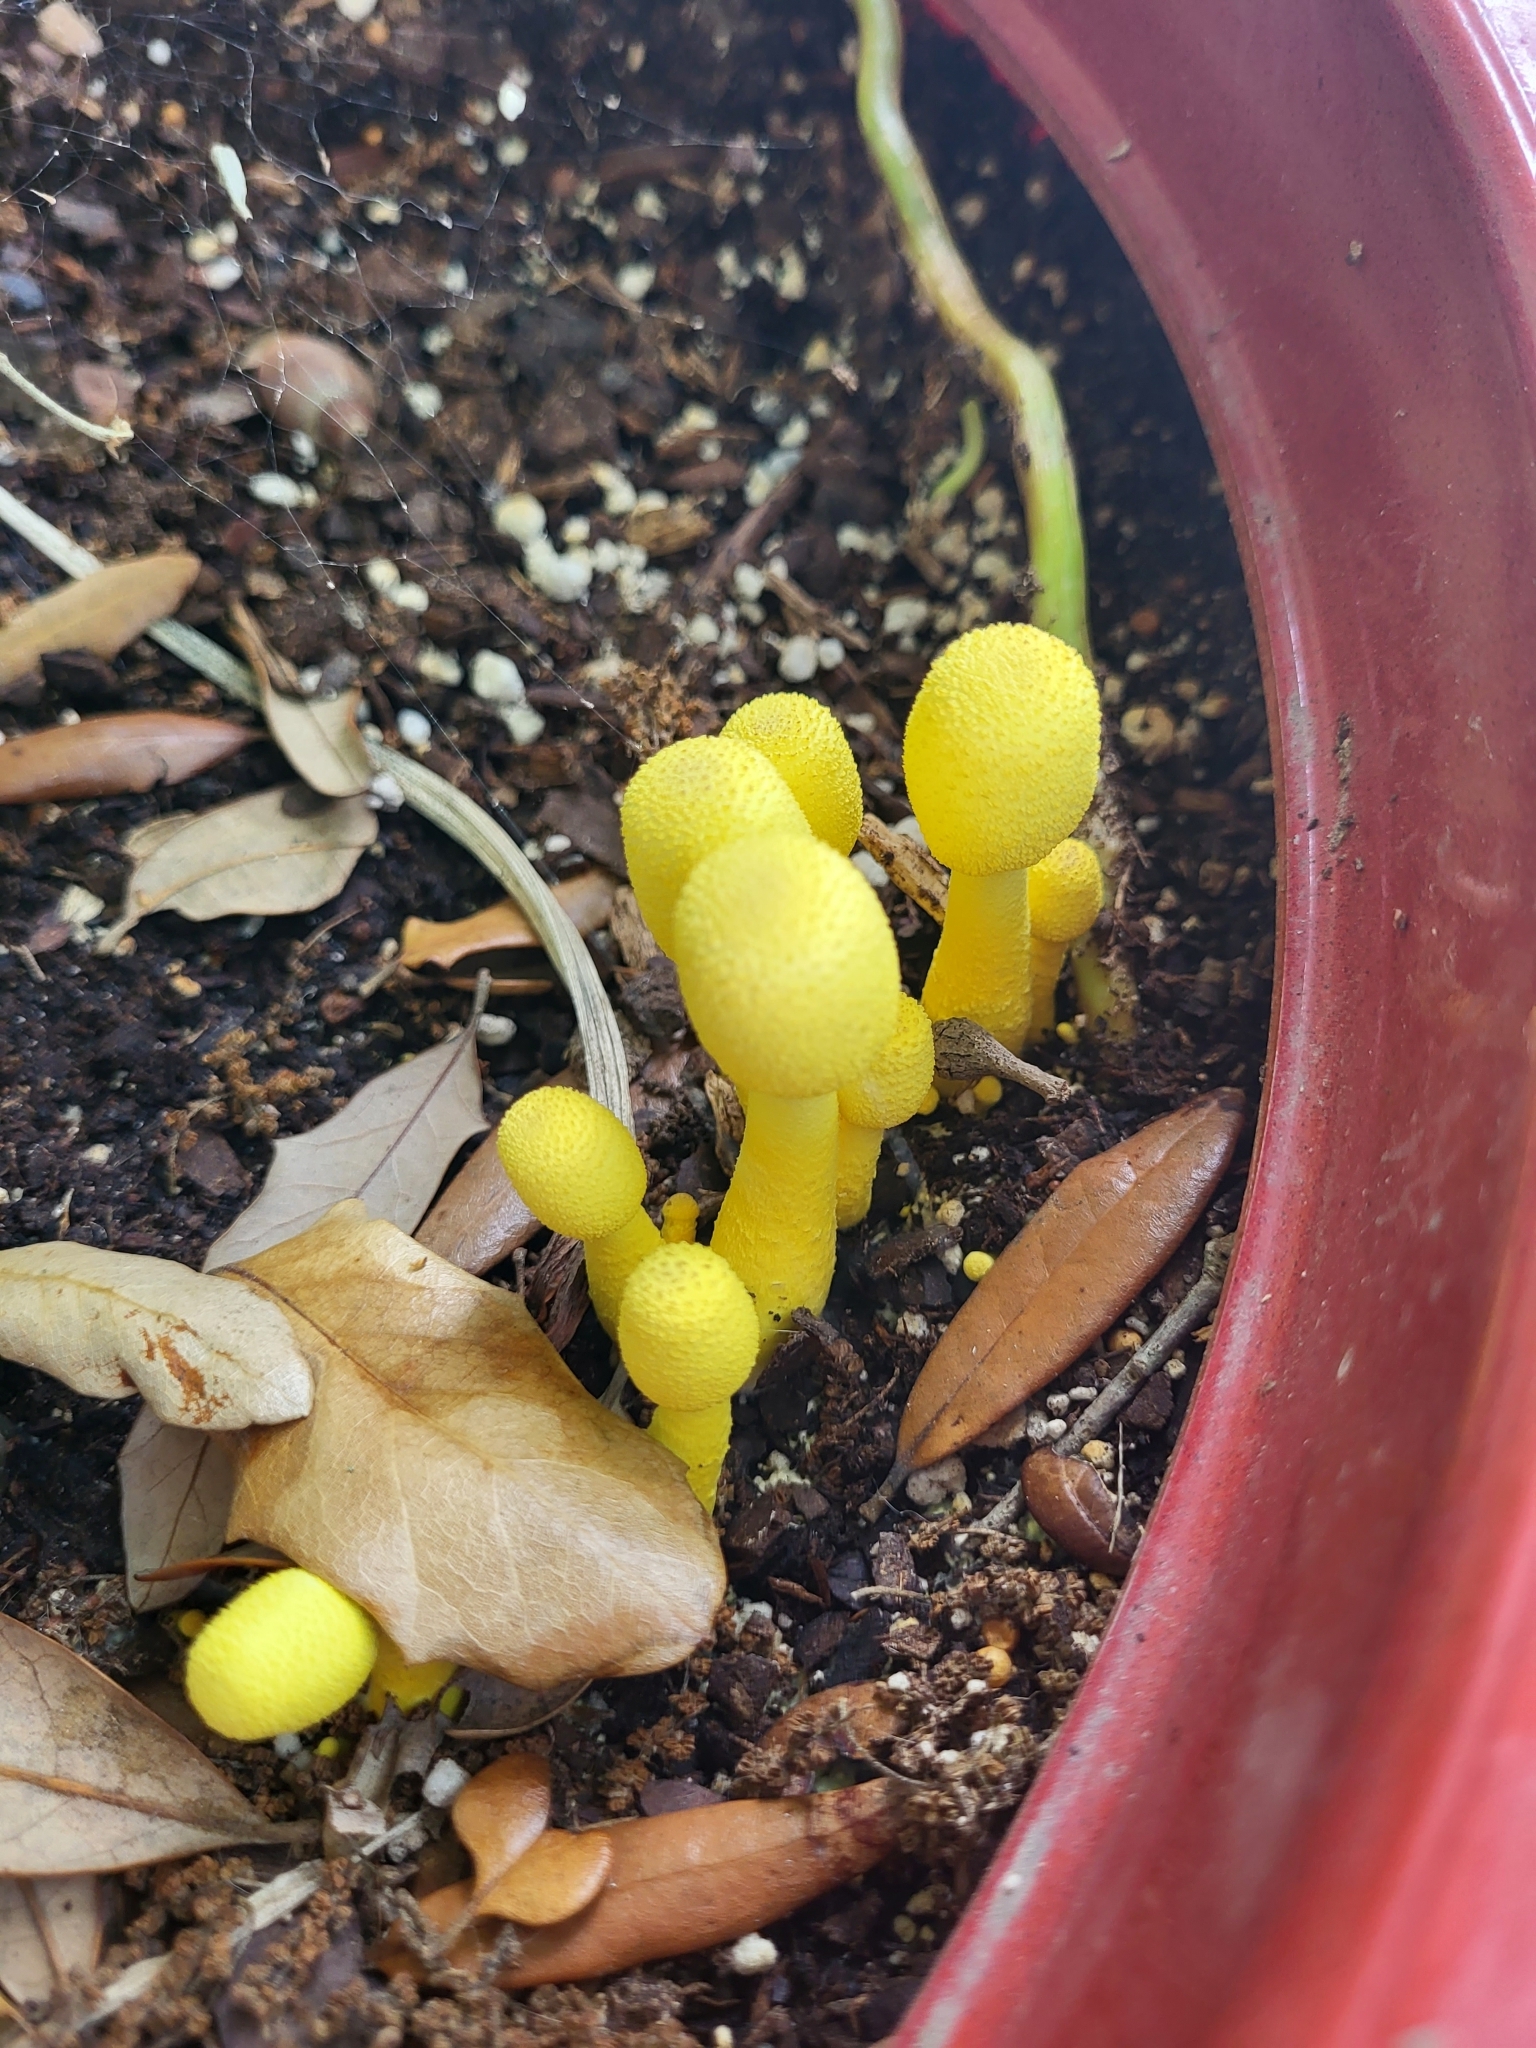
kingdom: Fungi
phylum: Basidiomycota
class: Agaricomycetes
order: Agaricales
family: Agaricaceae
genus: Leucocoprinus
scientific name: Leucocoprinus birnbaumii
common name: Plantpot dapperling
